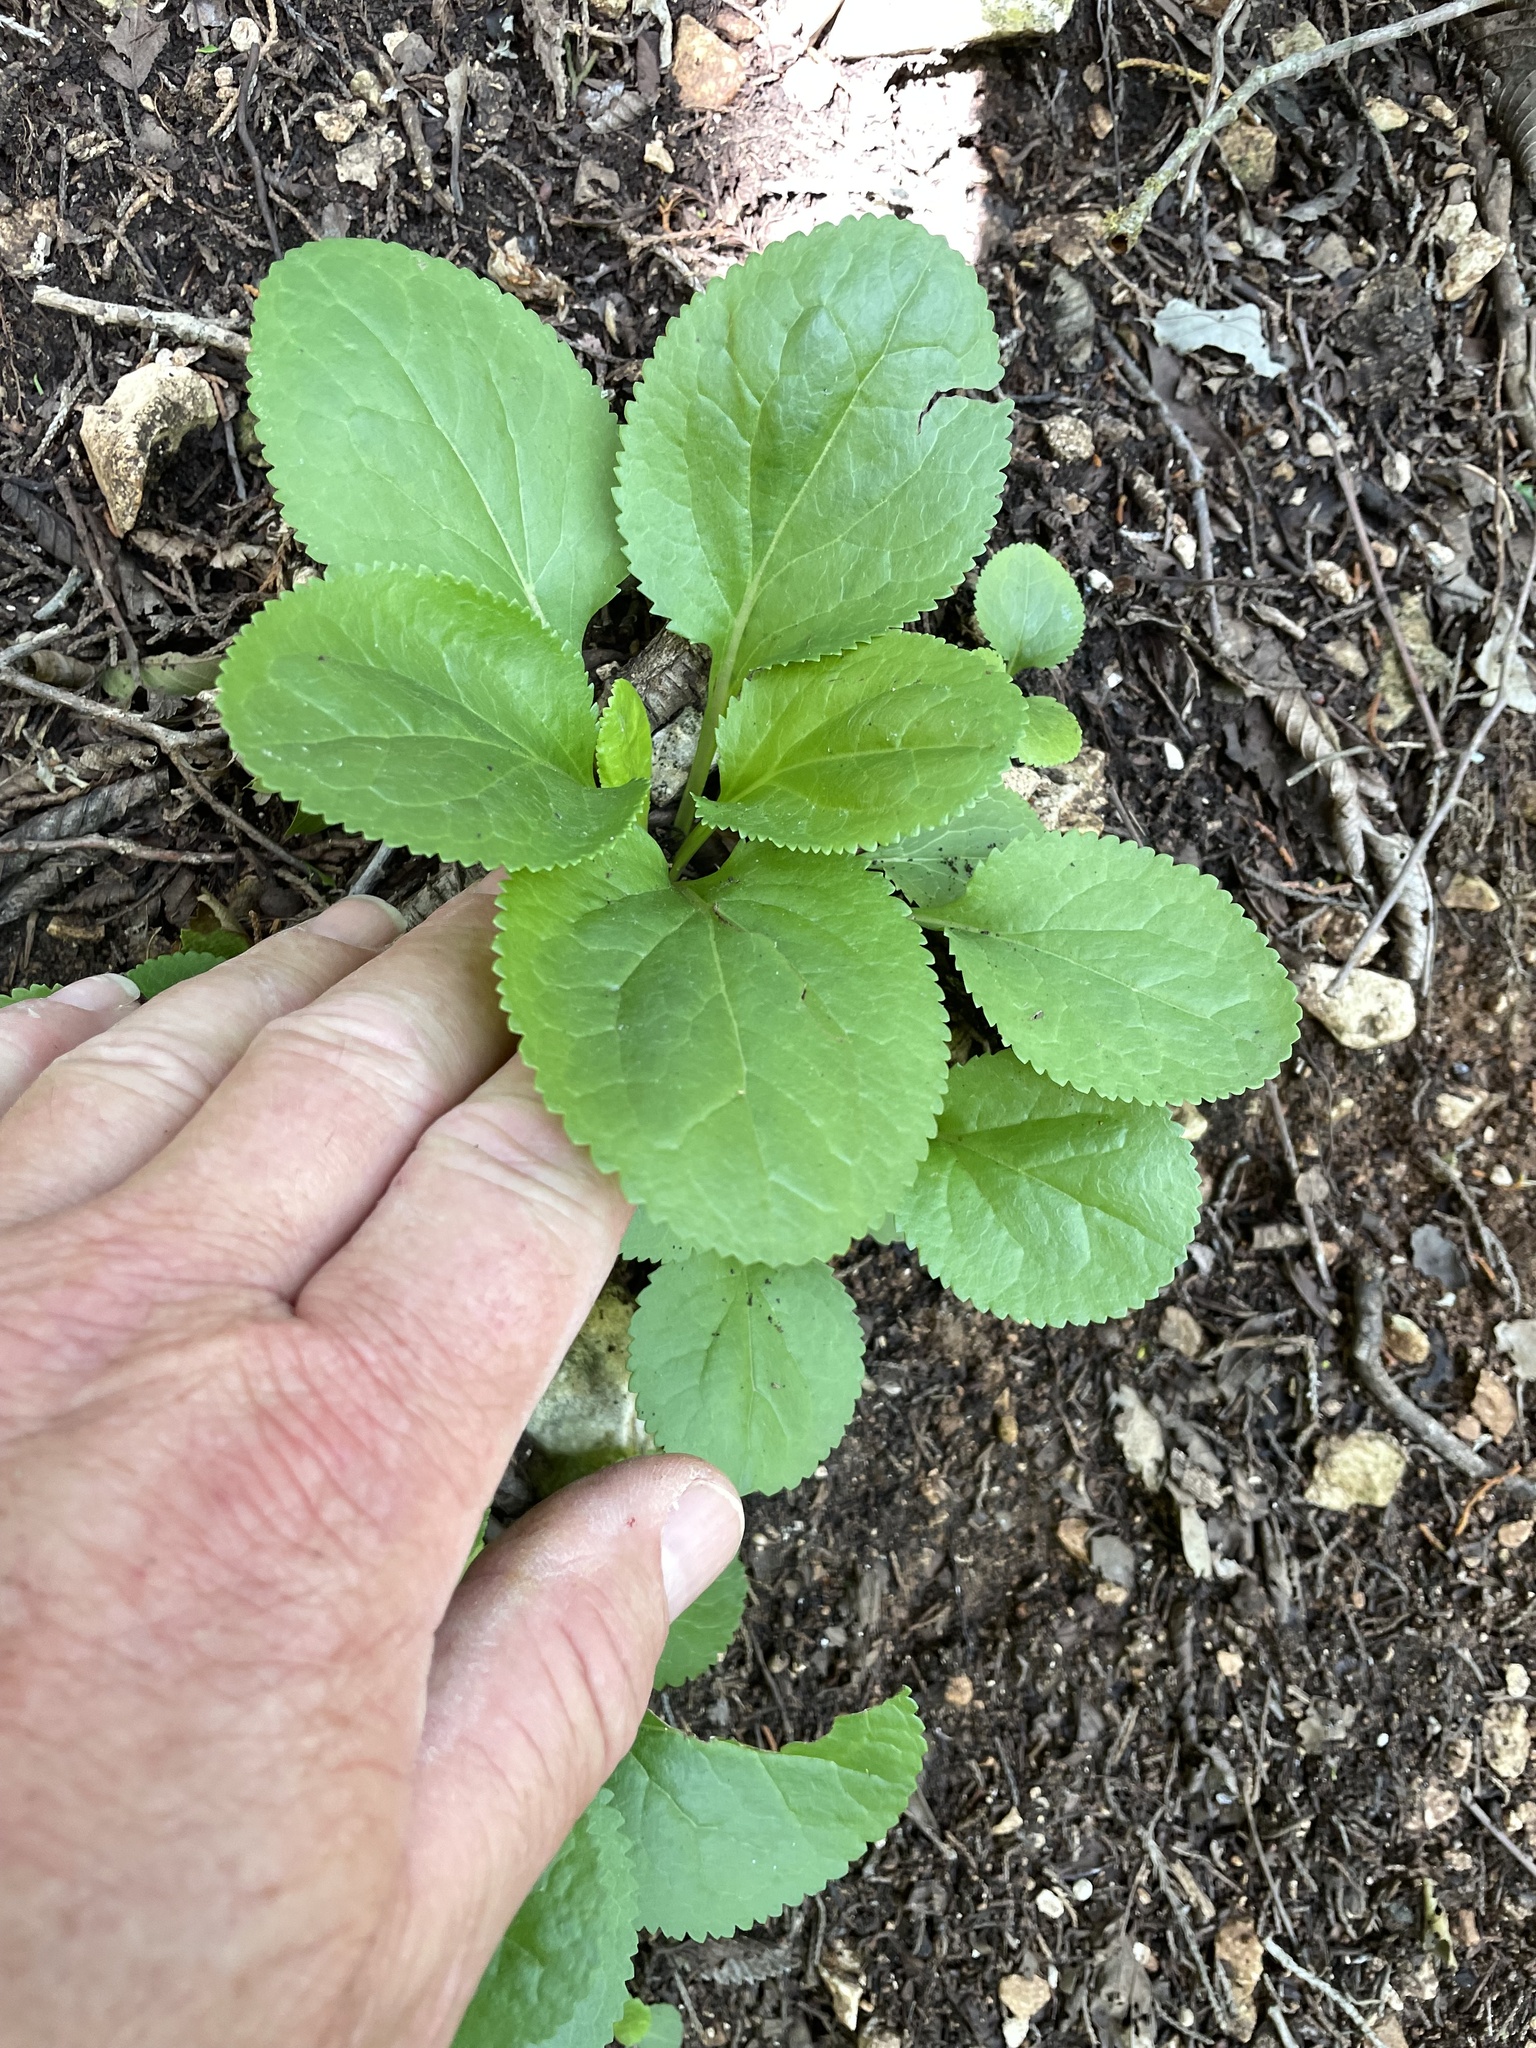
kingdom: Plantae
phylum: Tracheophyta
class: Magnoliopsida
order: Asterales
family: Asteraceae
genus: Packera
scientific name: Packera obovata
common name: Round-leaf ragwort
